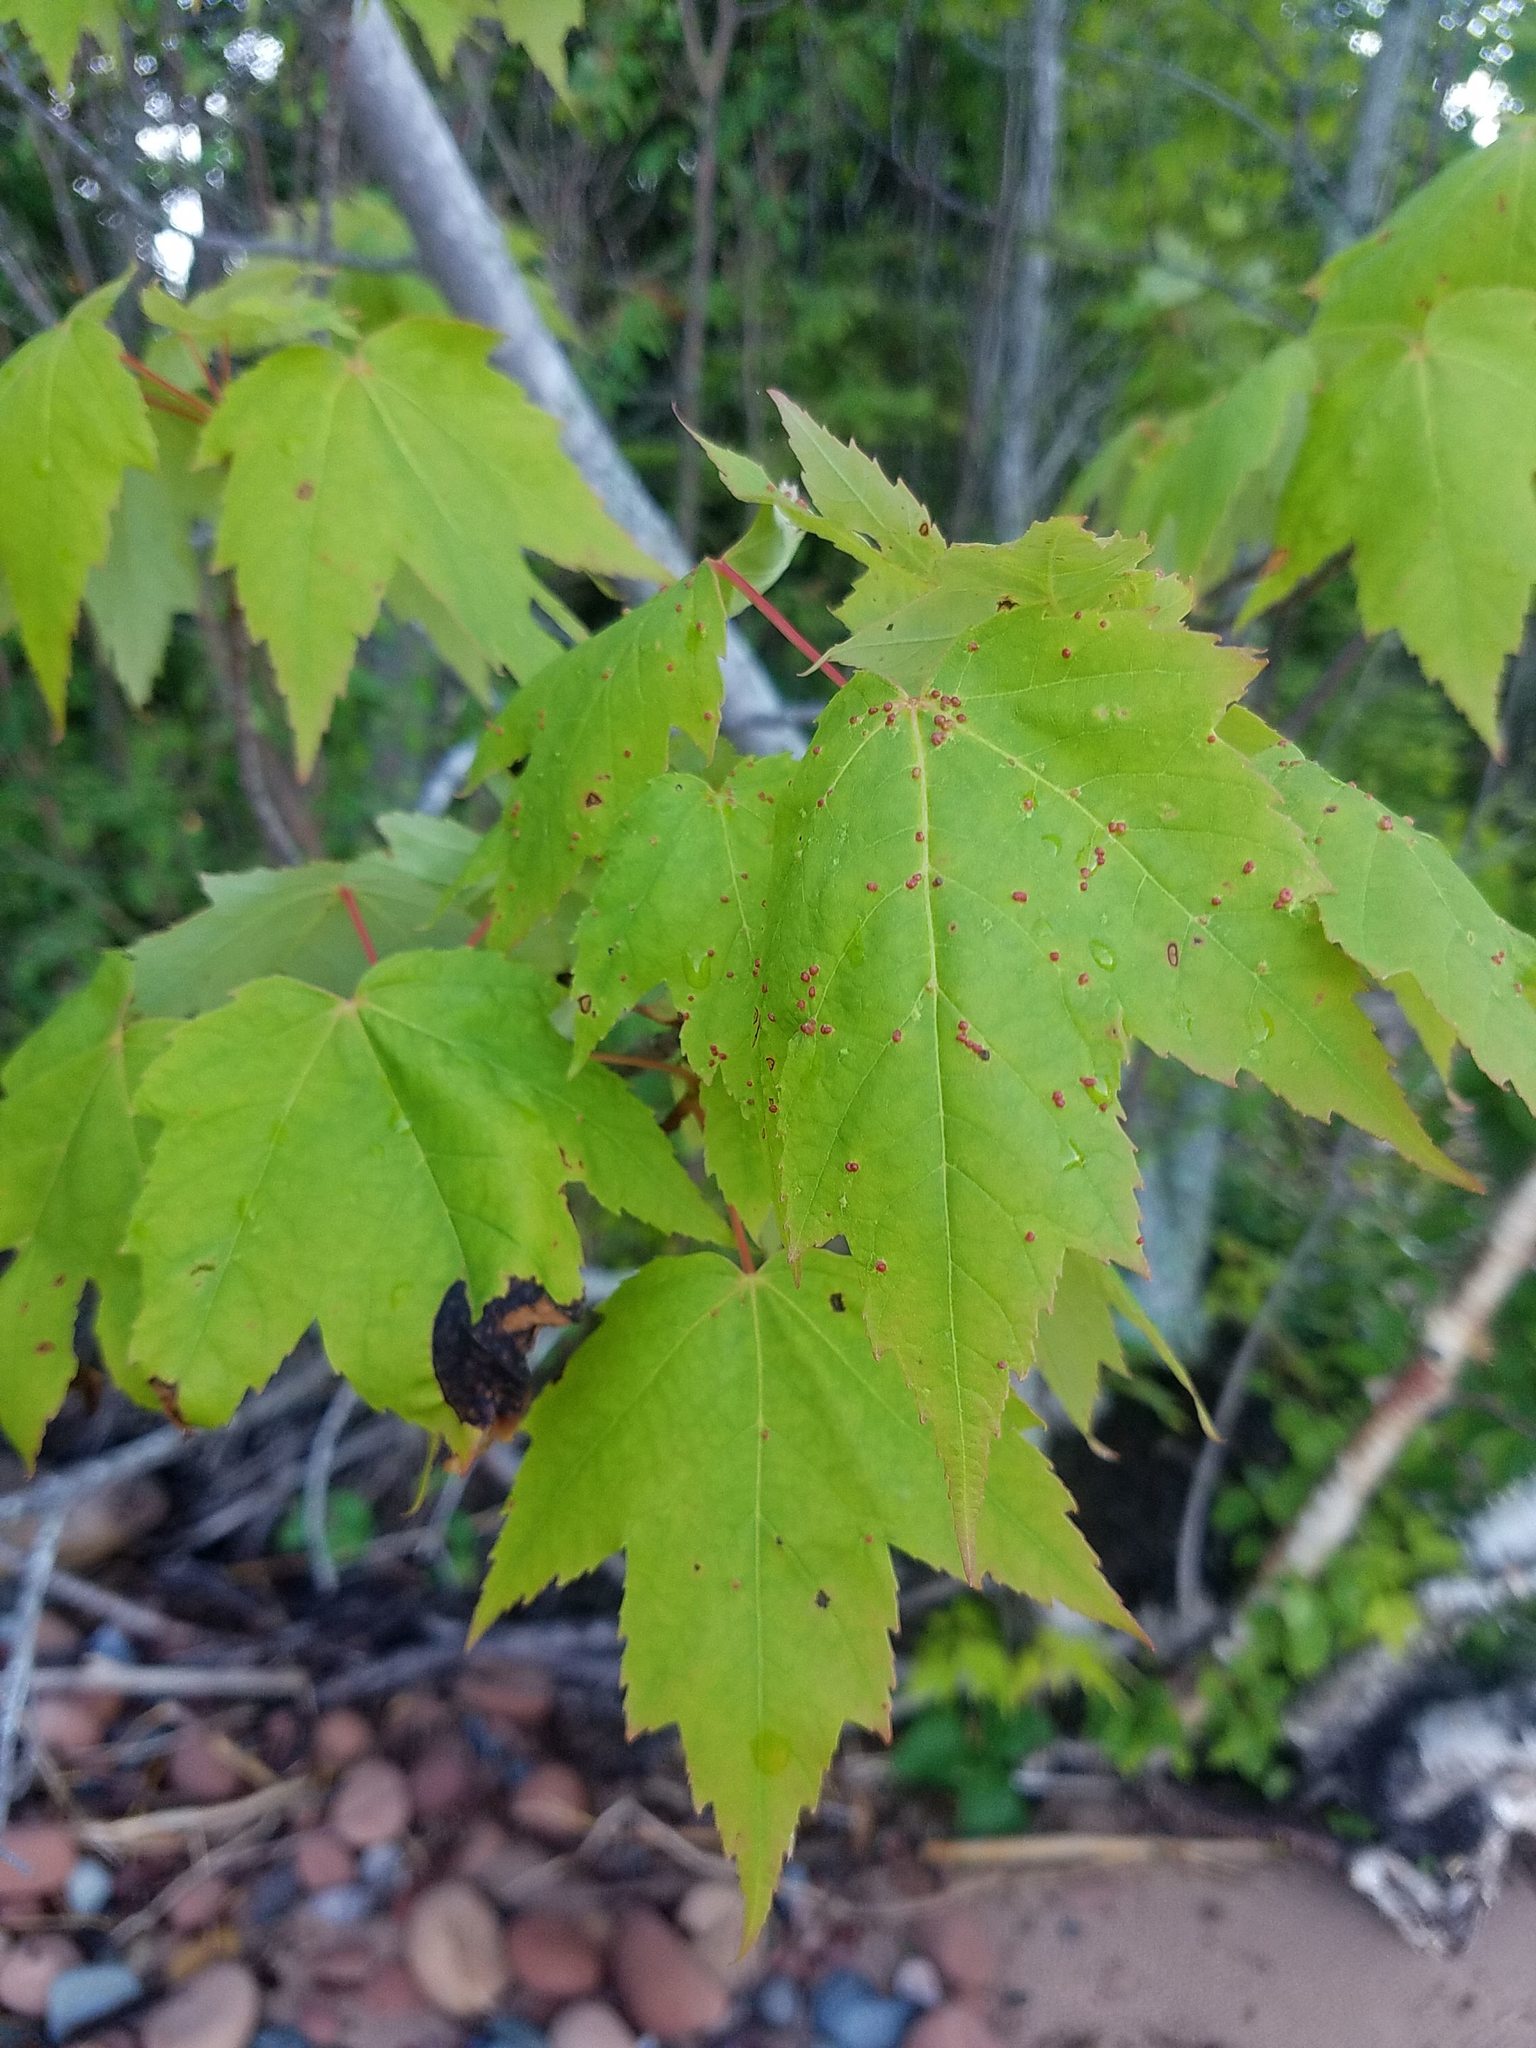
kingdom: Plantae
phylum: Tracheophyta
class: Magnoliopsida
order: Sapindales
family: Sapindaceae
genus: Acer
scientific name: Acer rubrum
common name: Red maple
